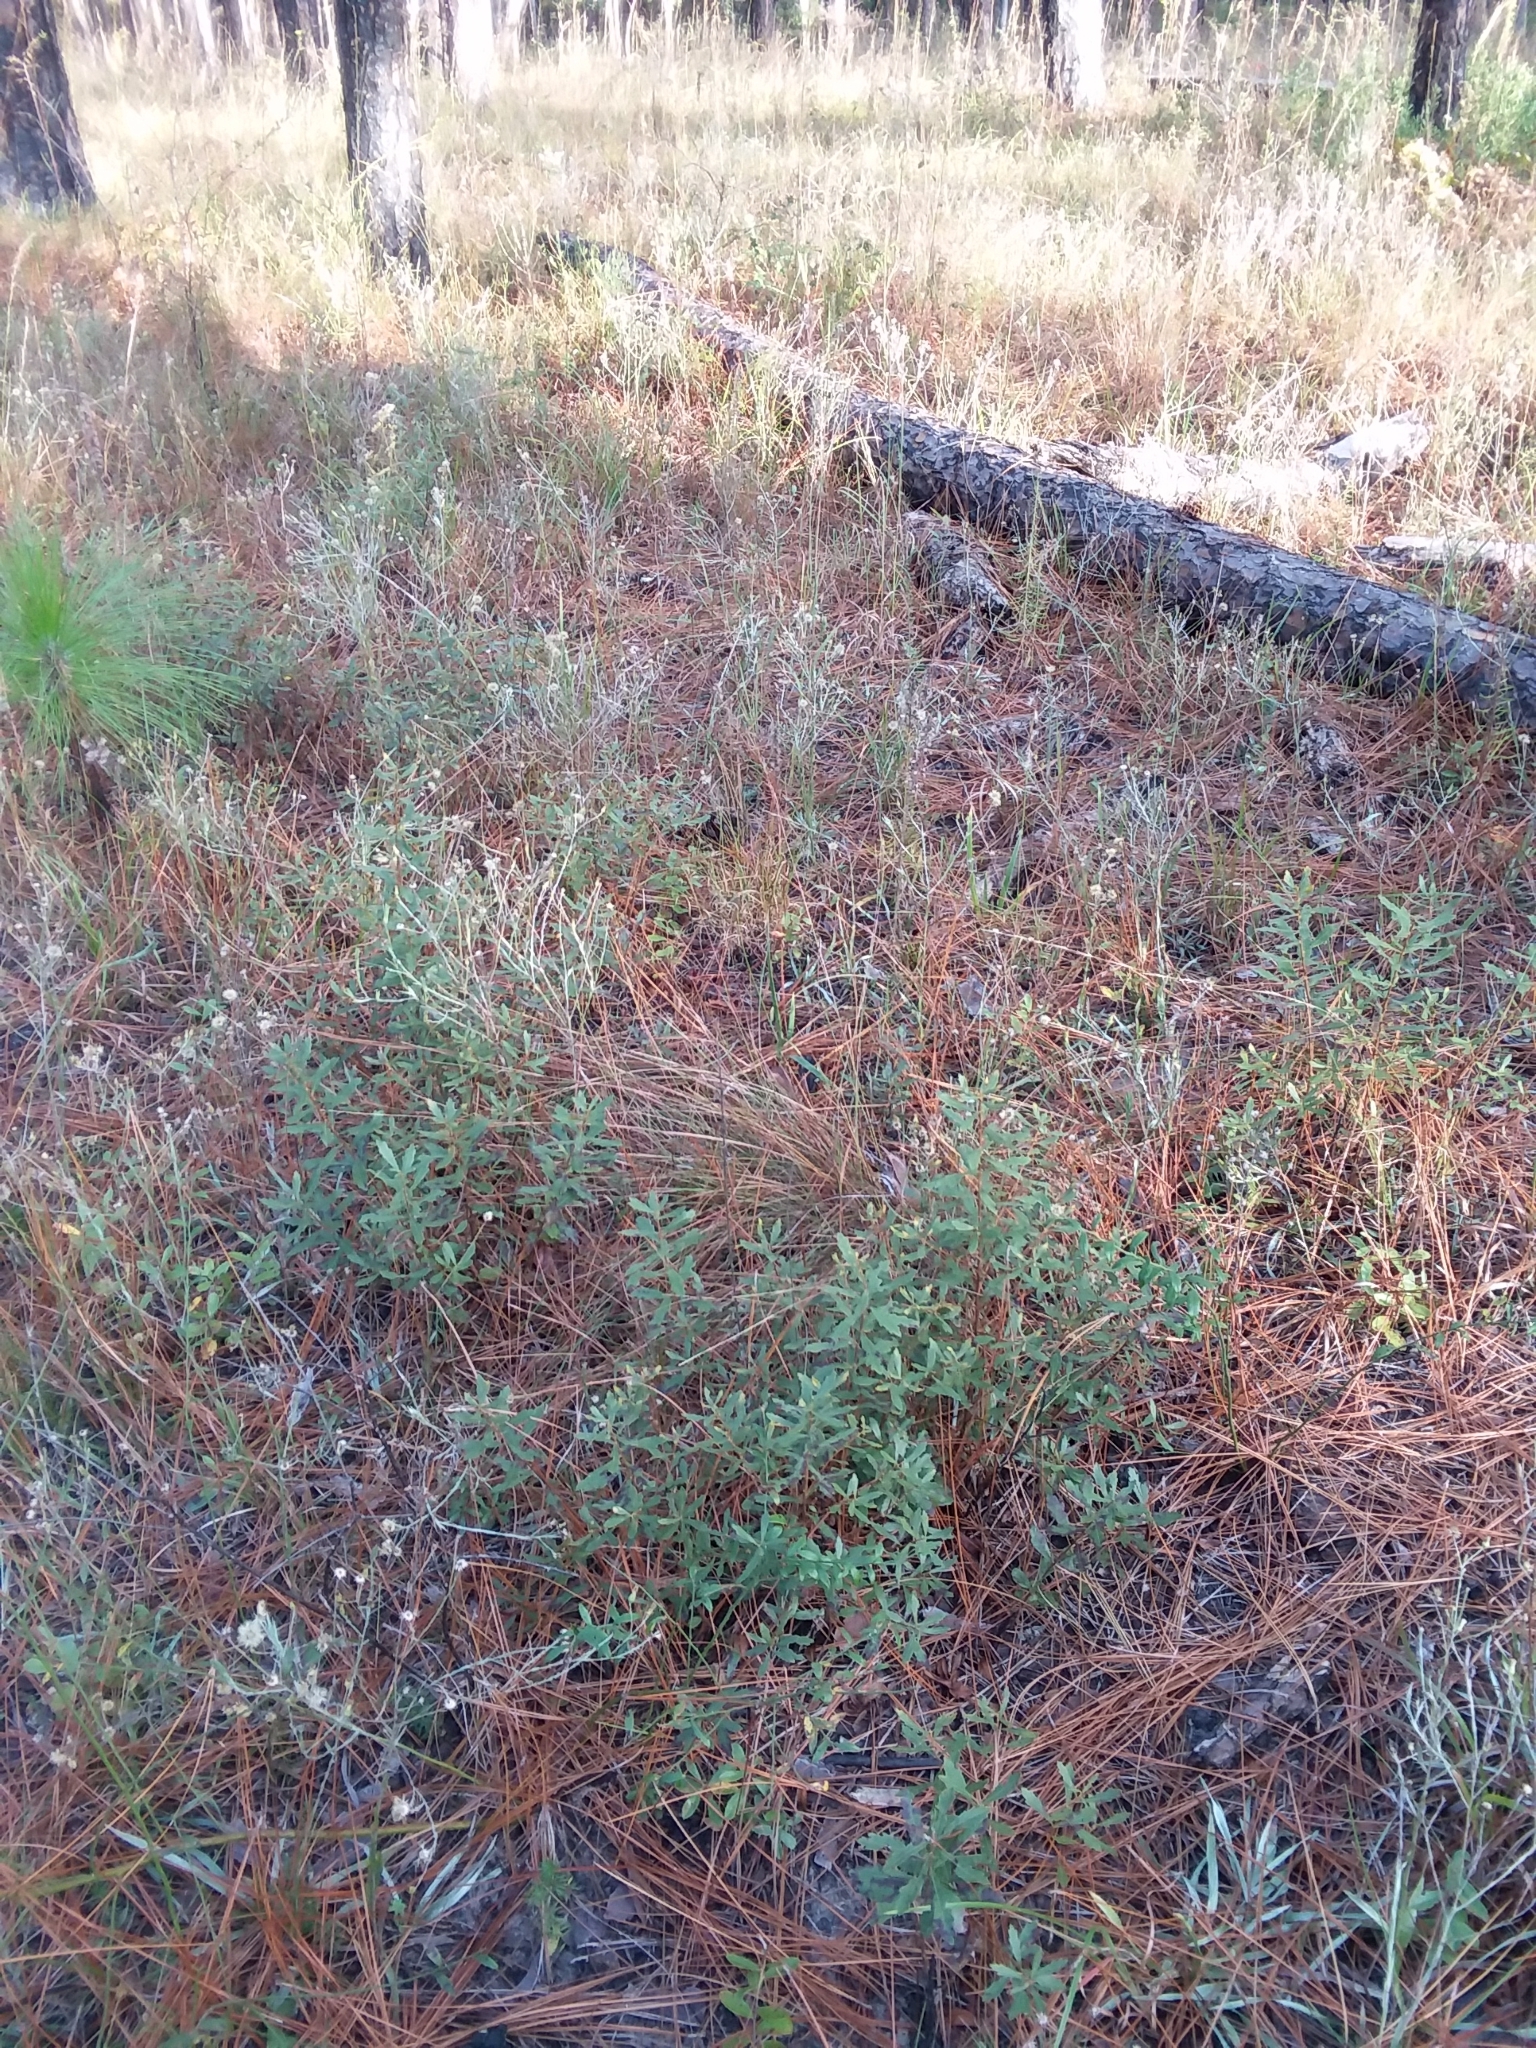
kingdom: Plantae
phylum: Tracheophyta
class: Magnoliopsida
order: Fagales
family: Myricaceae
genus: Morella
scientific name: Morella cerifera
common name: Wax myrtle
